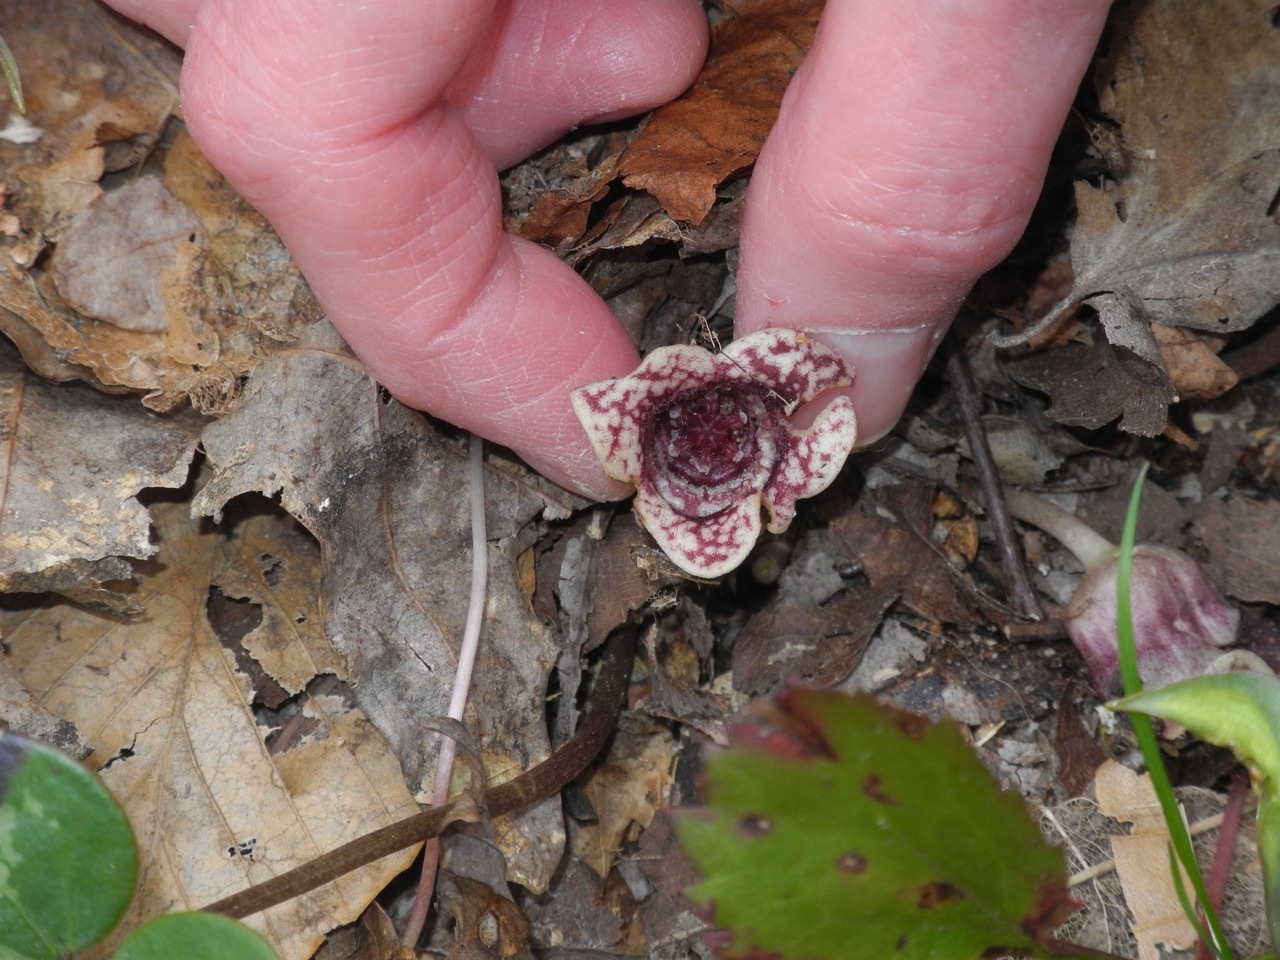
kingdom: Plantae
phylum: Tracheophyta
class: Magnoliopsida
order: Piperales
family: Aristolochiaceae
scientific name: Aristolochiaceae
